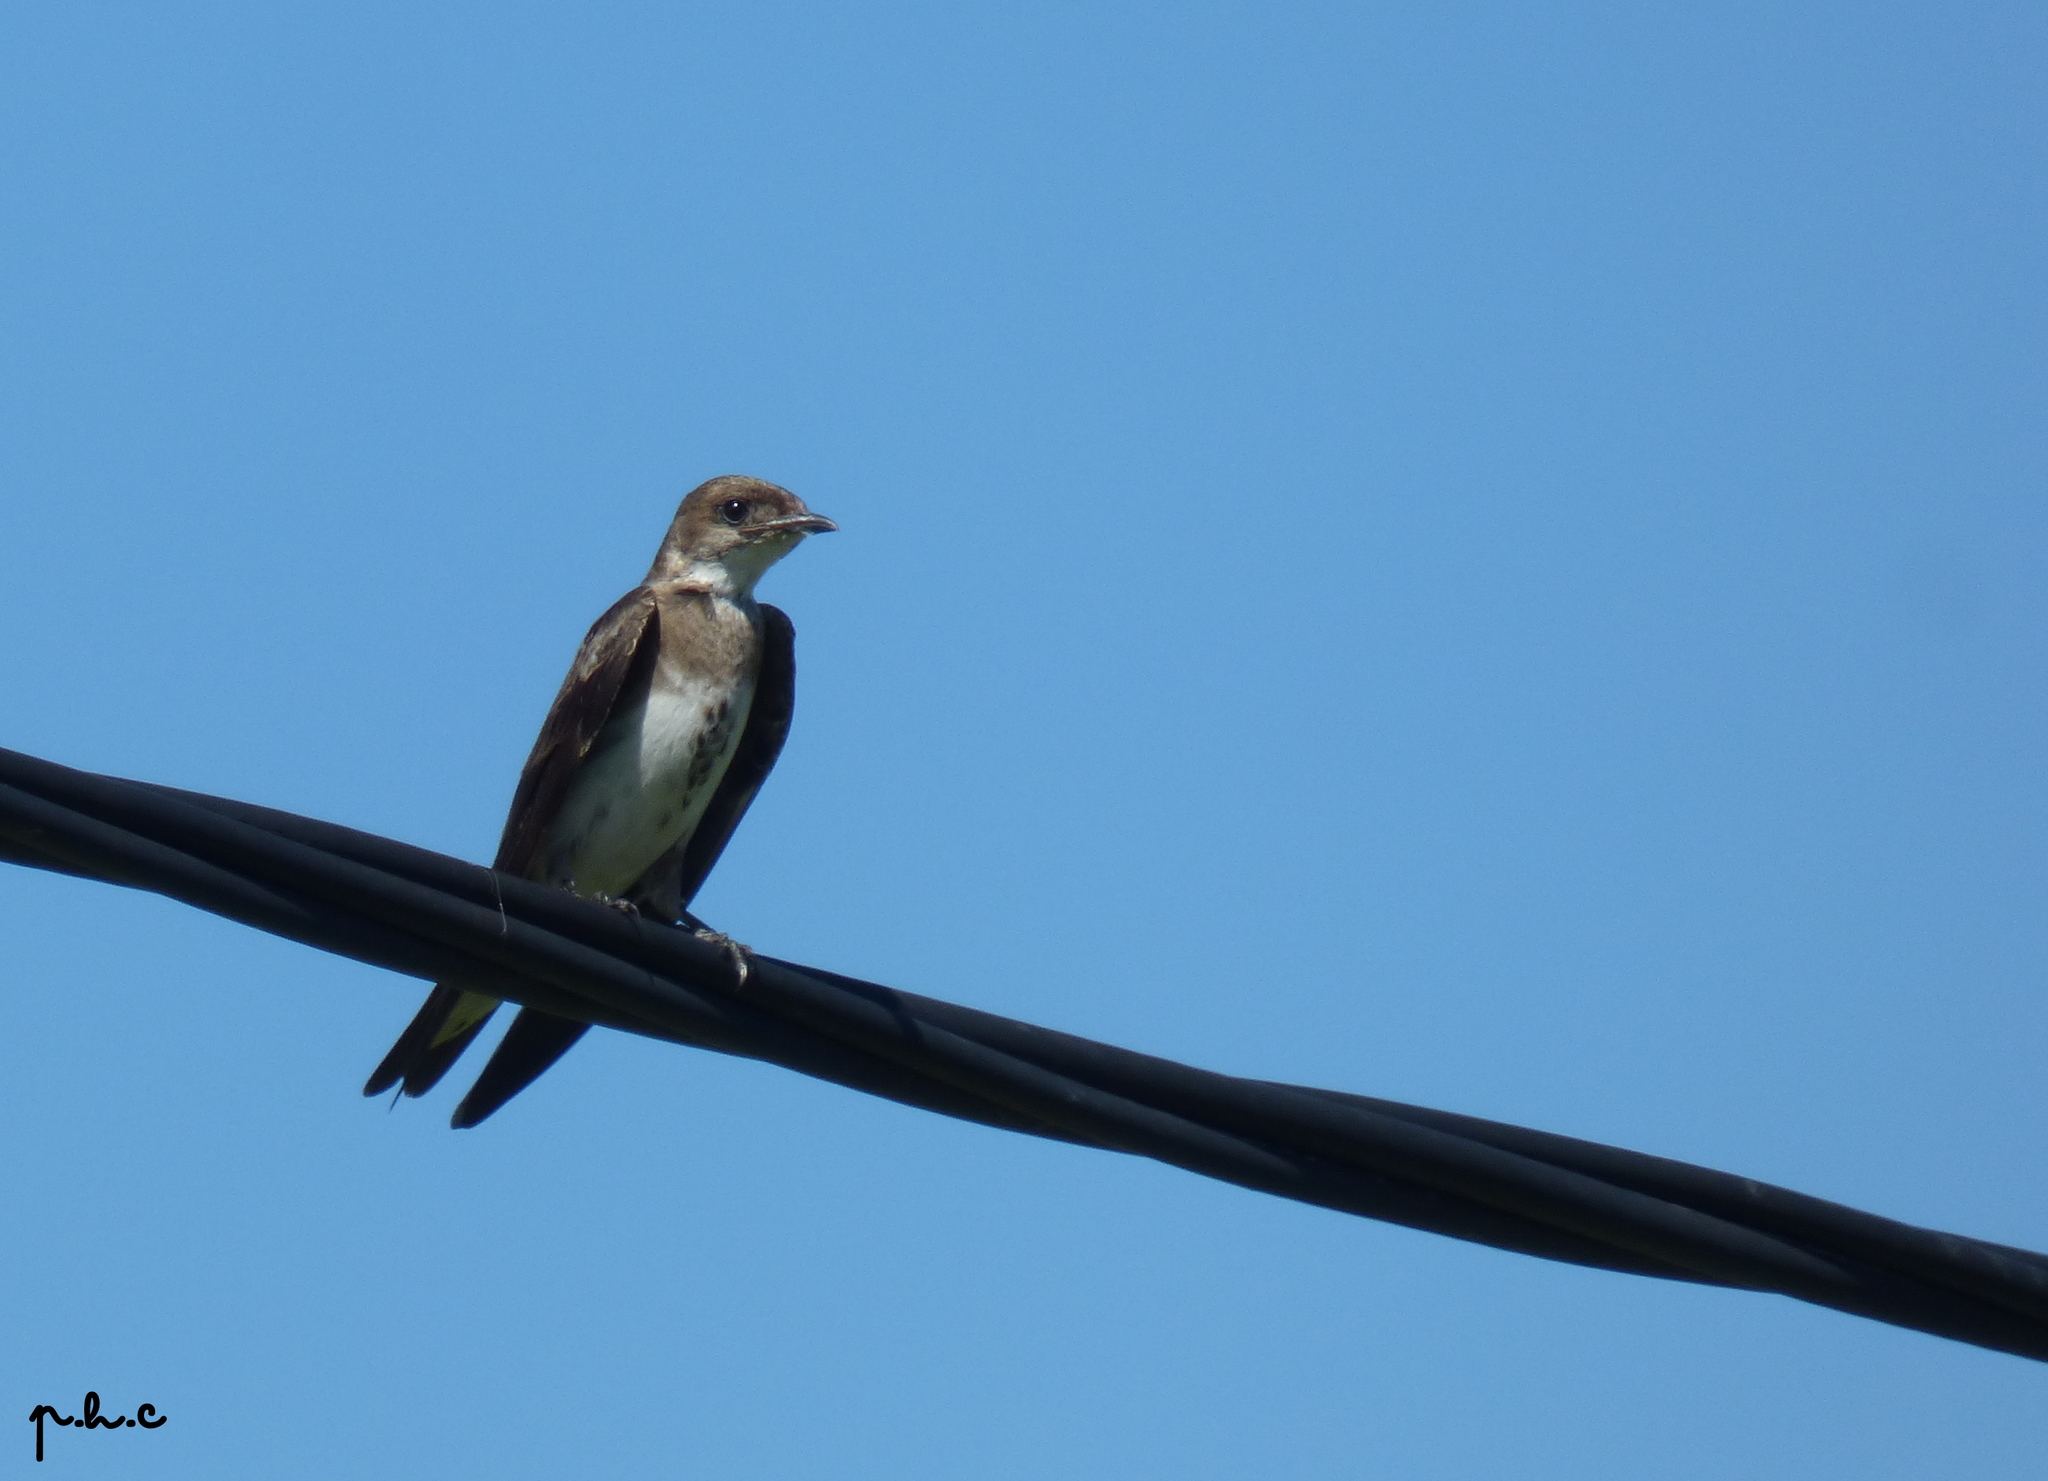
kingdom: Animalia
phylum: Chordata
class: Aves
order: Passeriformes
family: Hirundinidae
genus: Progne
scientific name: Progne tapera
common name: Brown-chested martin
